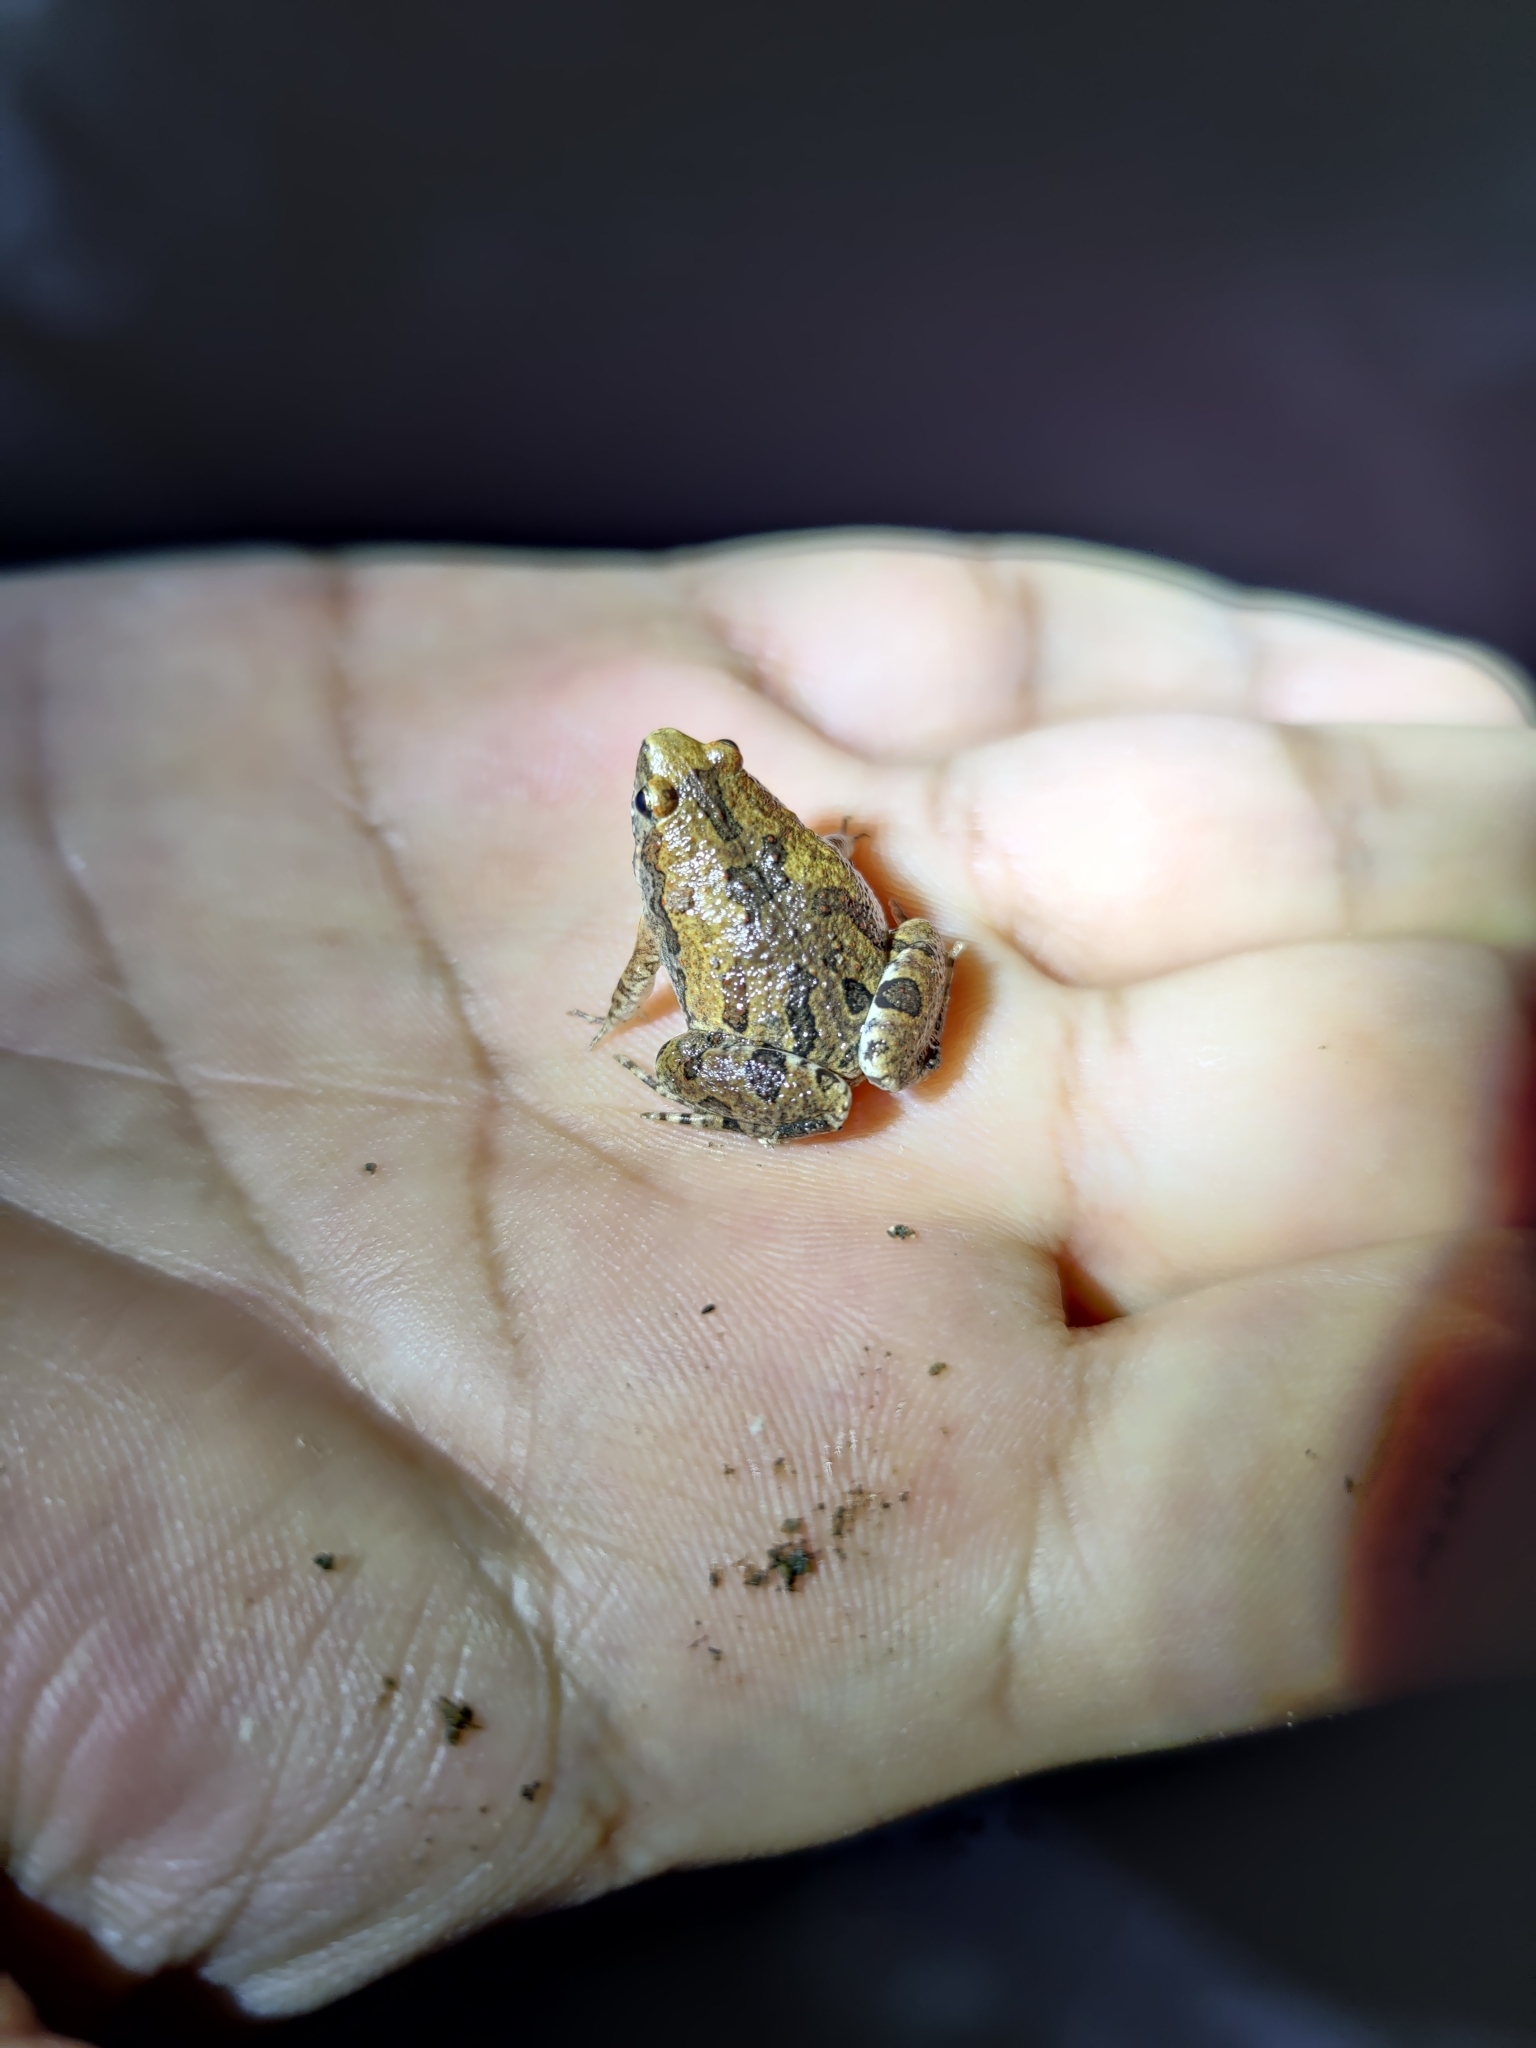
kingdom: Animalia
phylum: Chordata
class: Amphibia
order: Anura
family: Microhylidae
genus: Microhyla
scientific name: Microhyla ornata
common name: Ant frog
